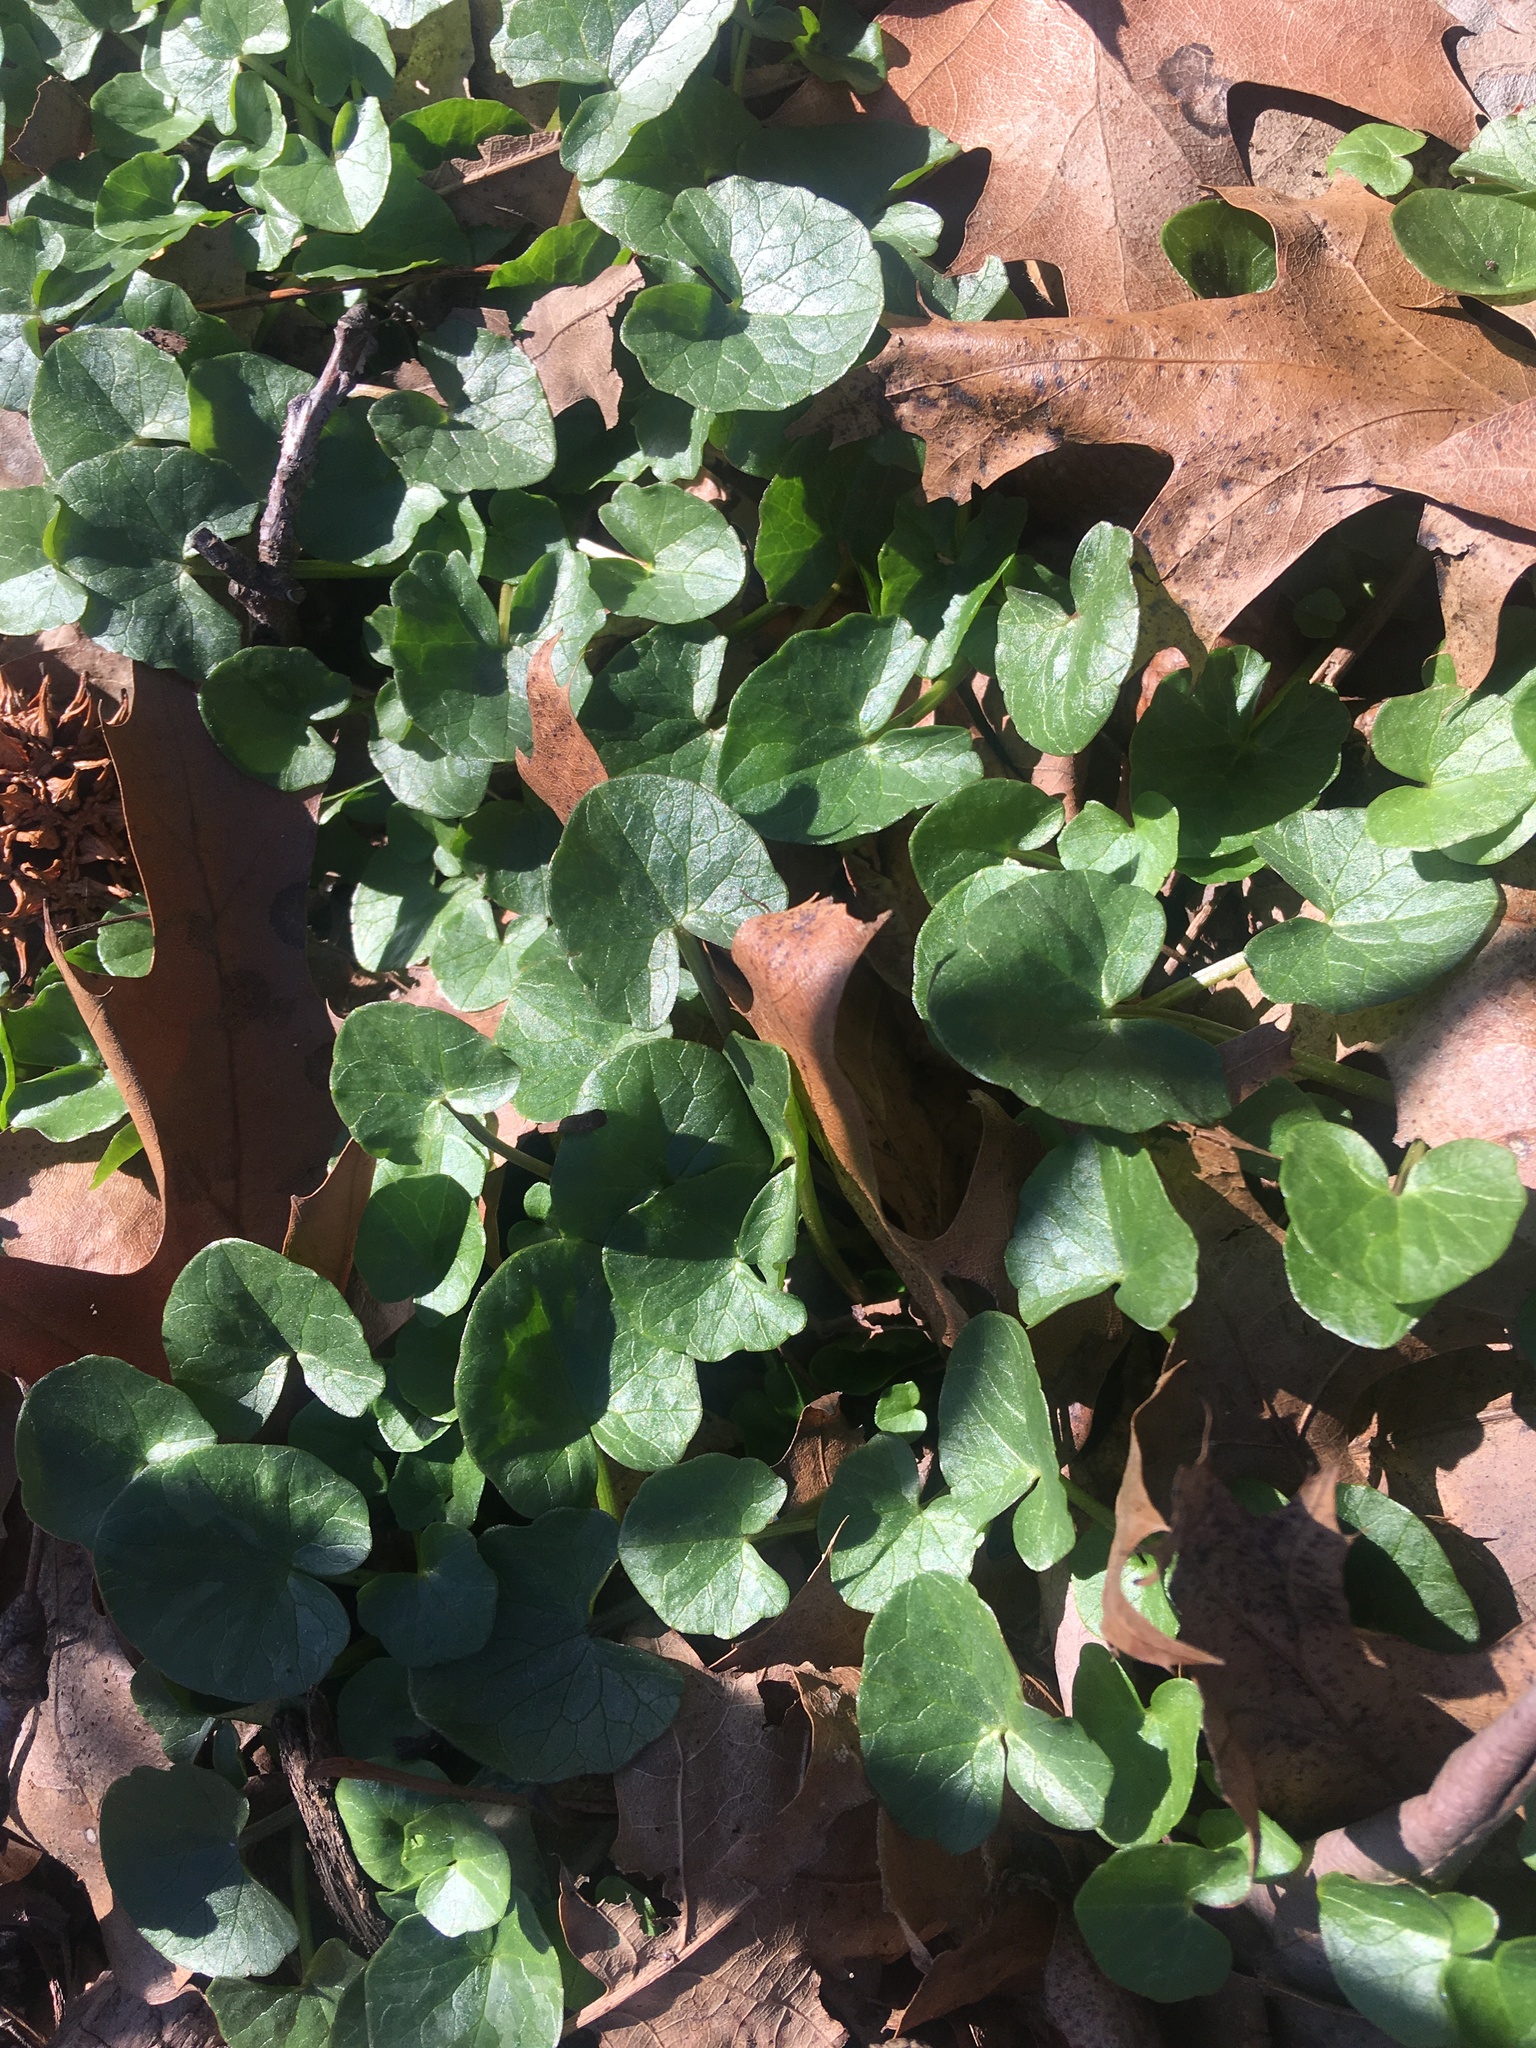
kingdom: Plantae
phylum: Tracheophyta
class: Magnoliopsida
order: Ranunculales
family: Ranunculaceae
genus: Ficaria
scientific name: Ficaria verna
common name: Lesser celandine
